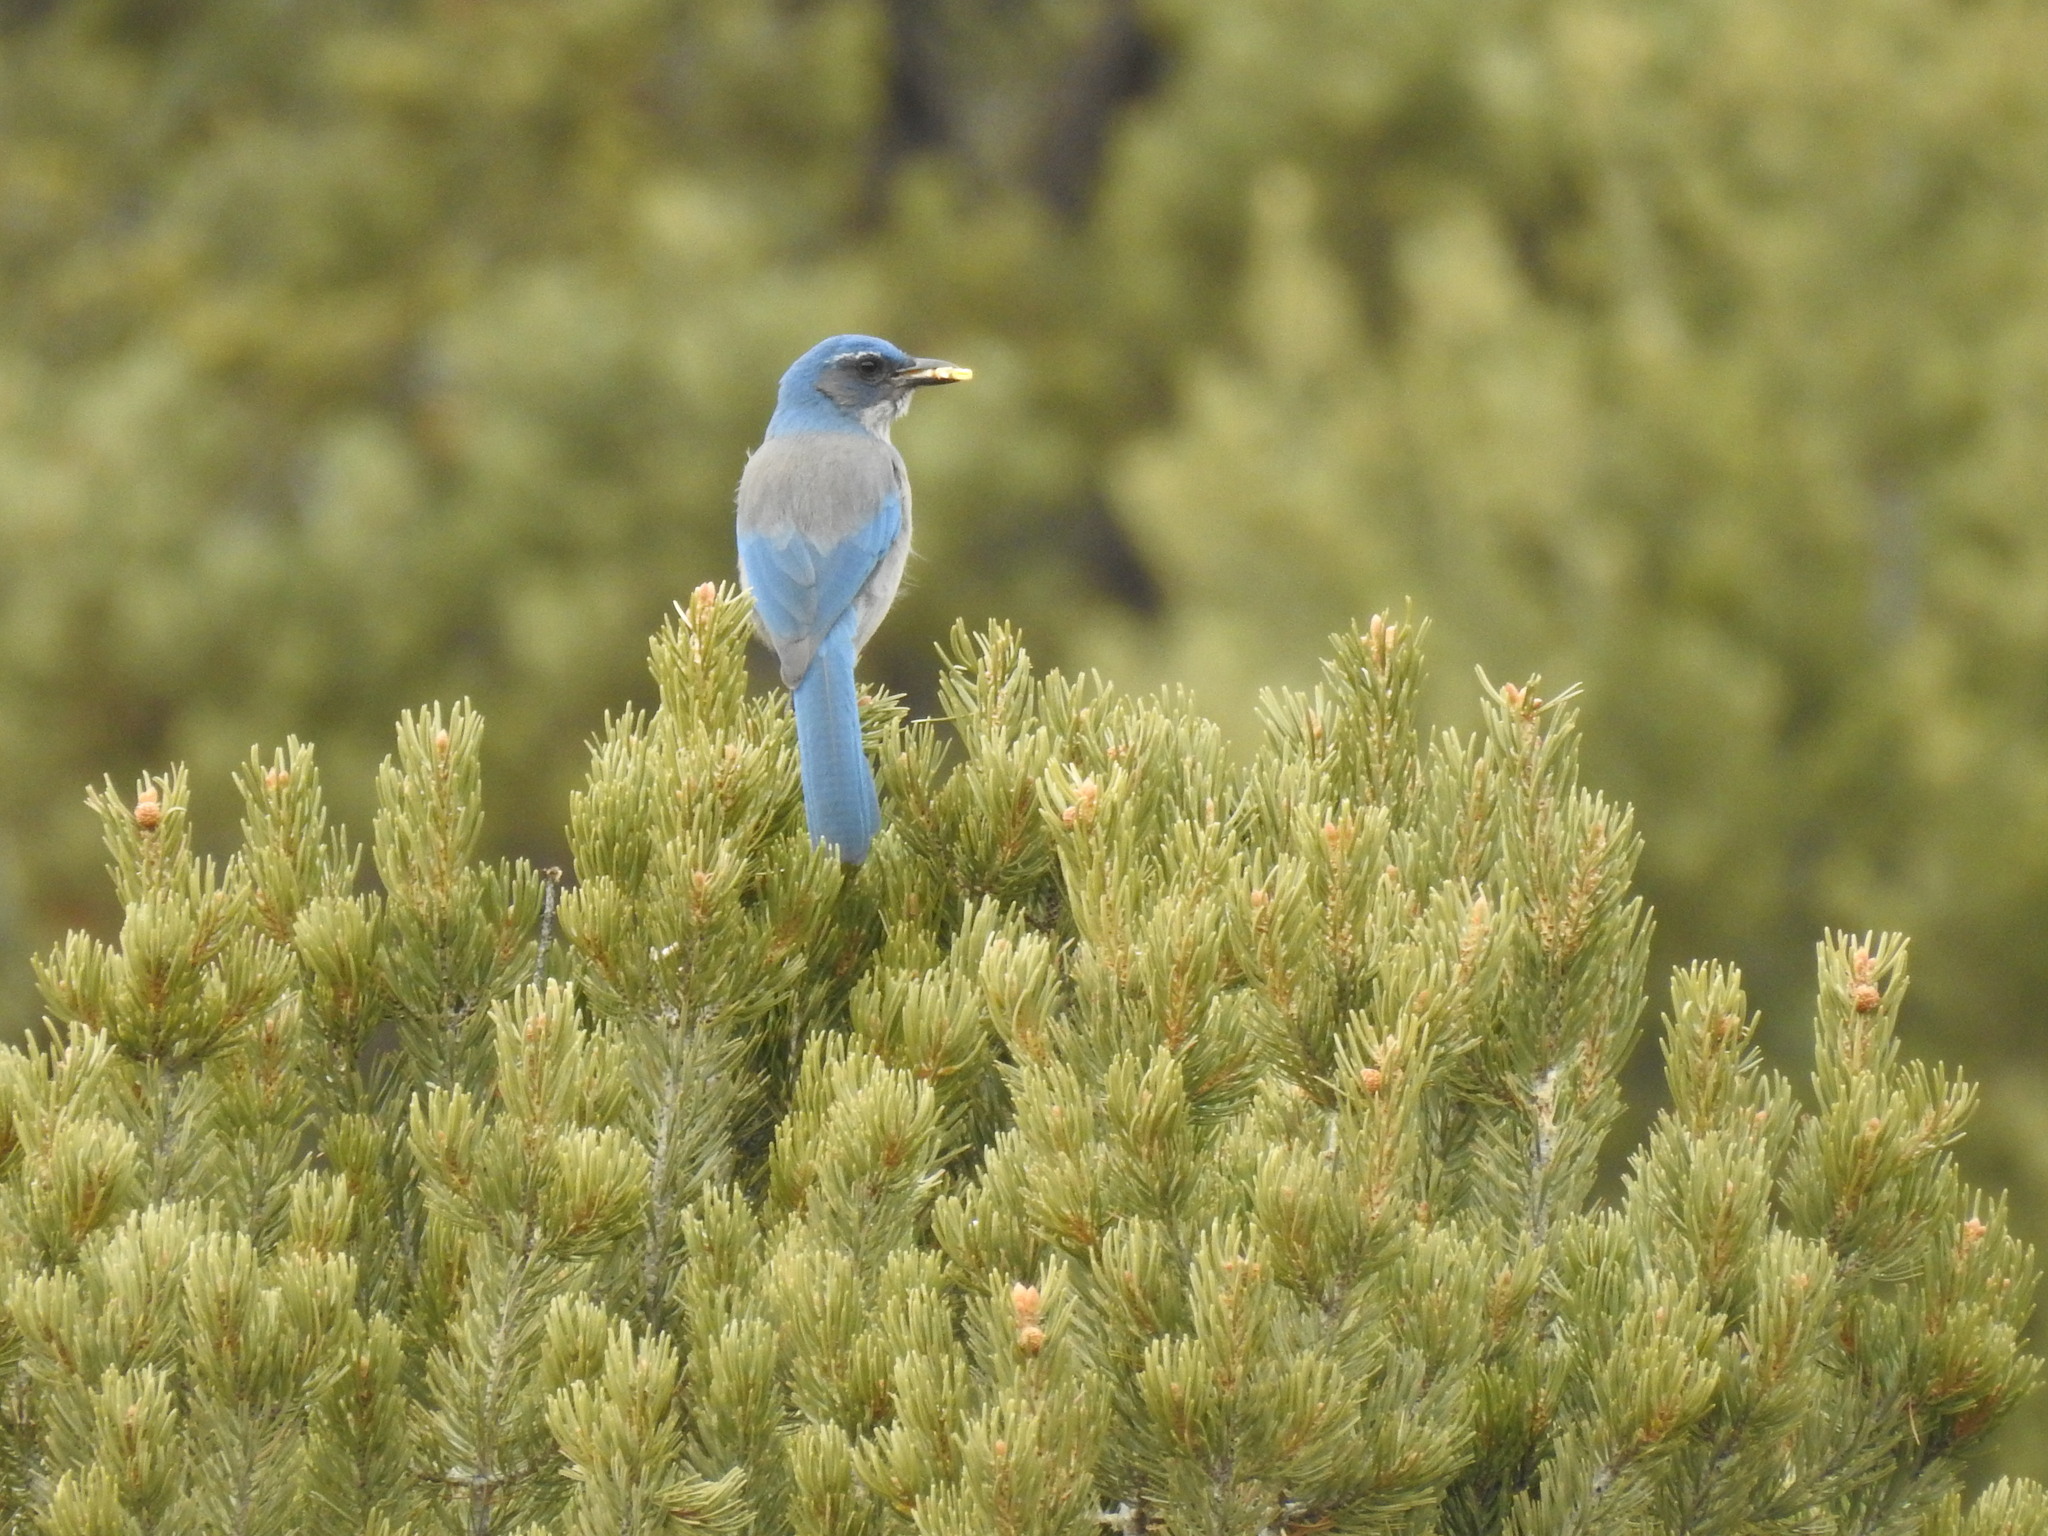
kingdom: Animalia
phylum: Chordata
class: Aves
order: Passeriformes
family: Corvidae
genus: Aphelocoma
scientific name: Aphelocoma woodhouseii
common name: Woodhouse's scrub-jay
